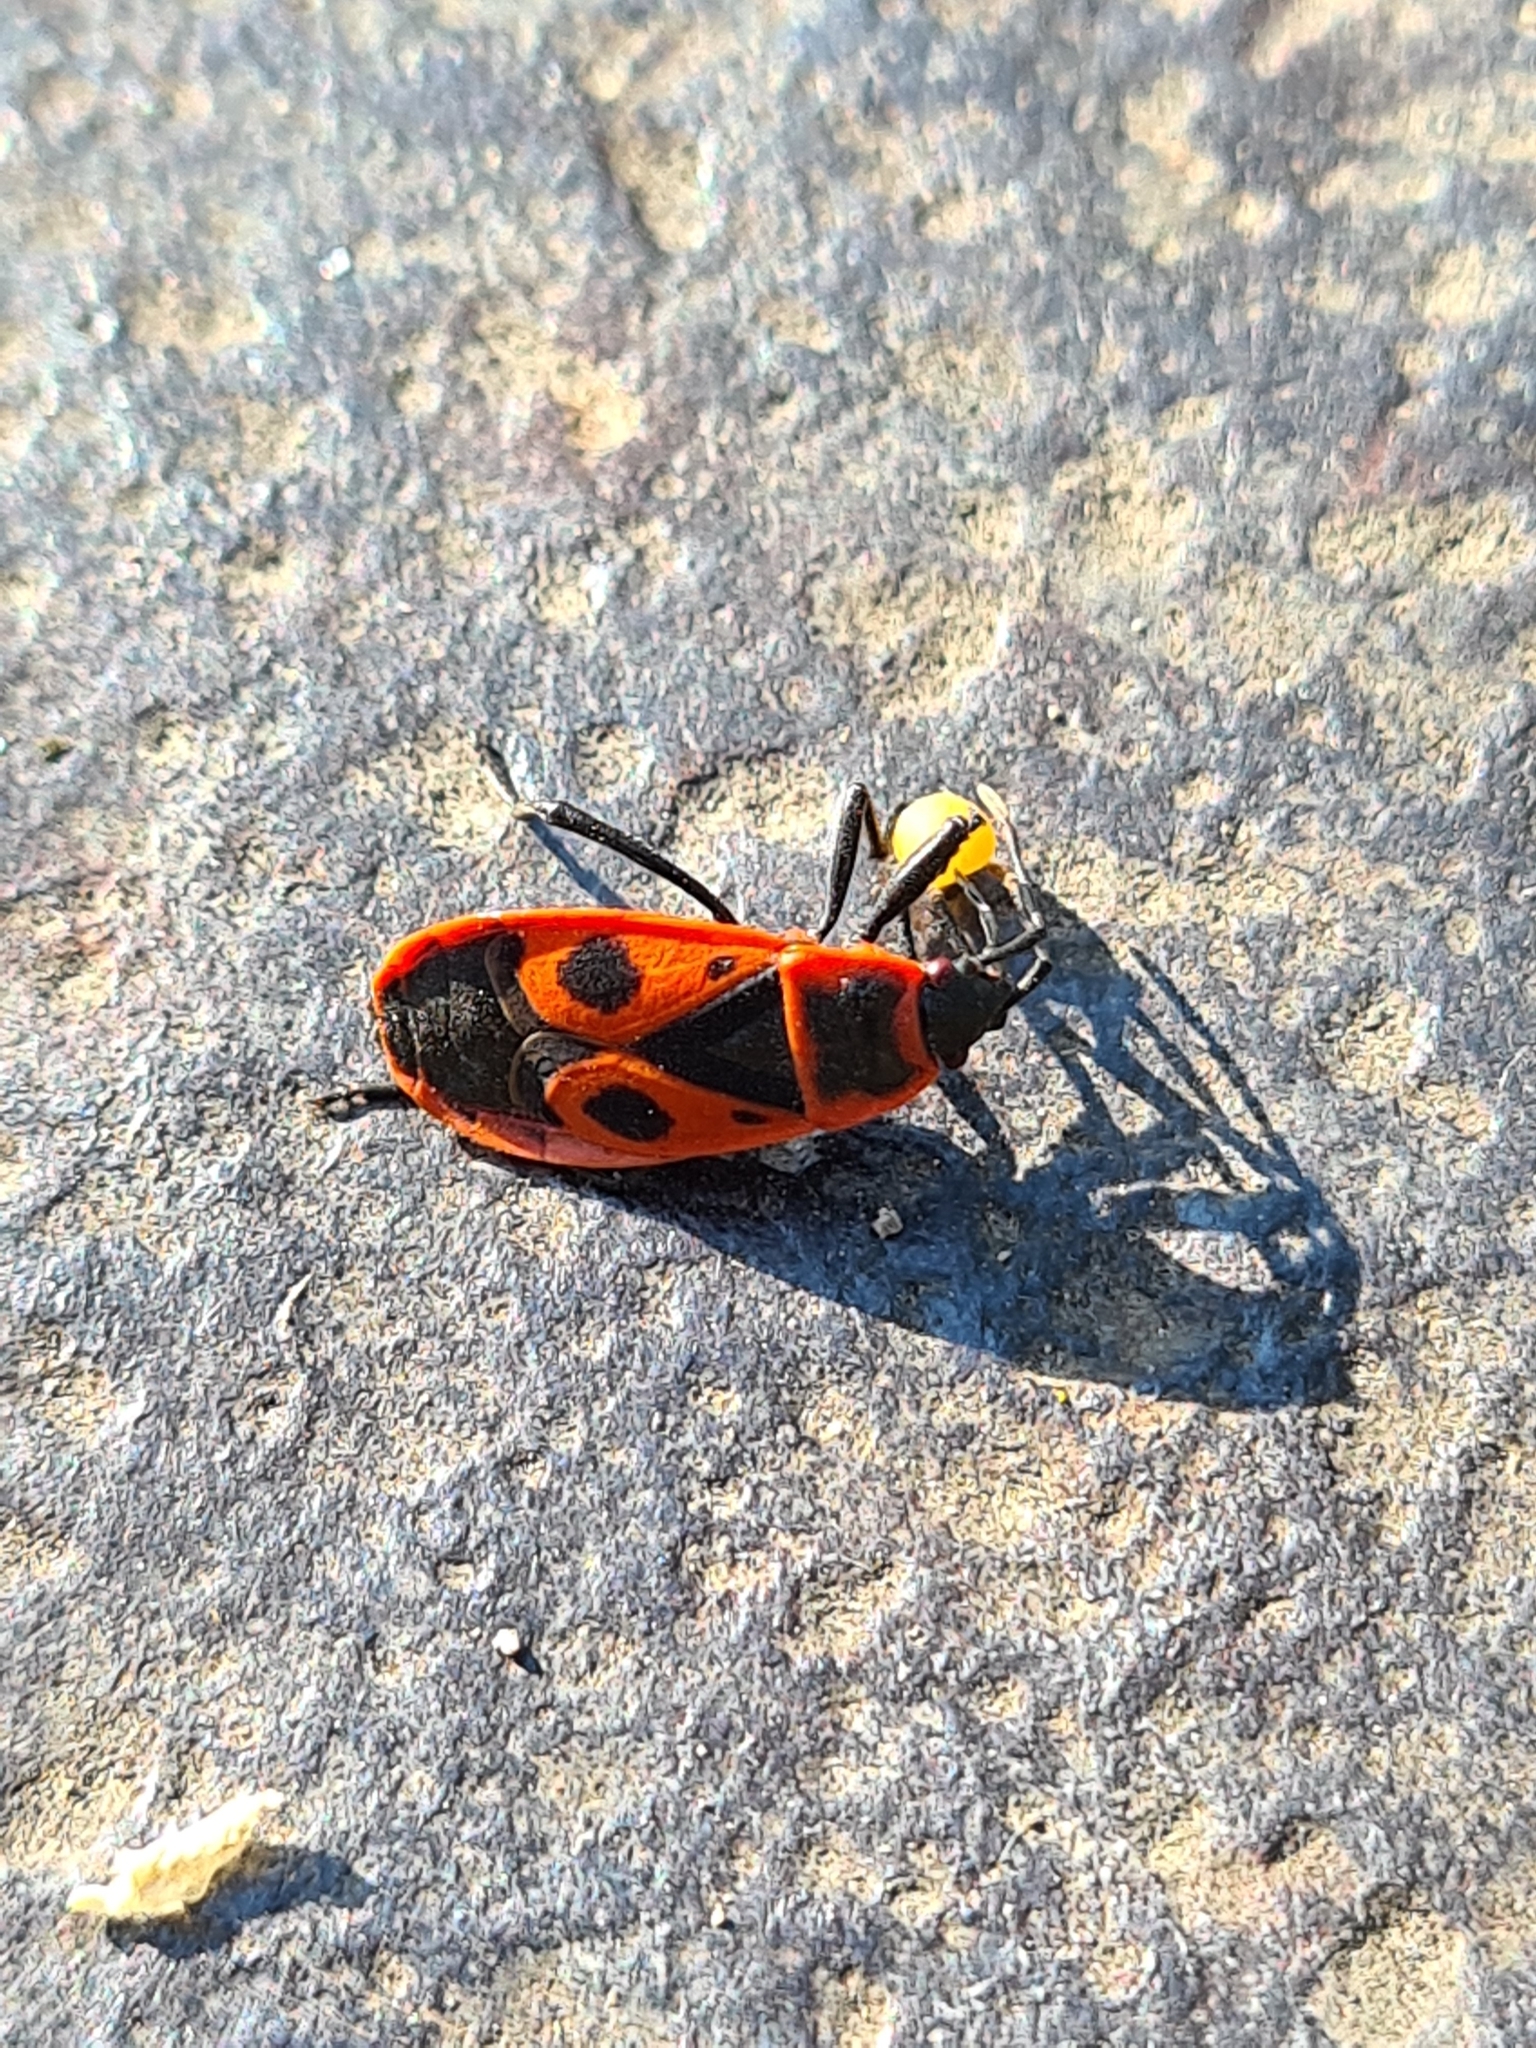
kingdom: Animalia
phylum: Arthropoda
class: Insecta
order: Hemiptera
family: Pyrrhocoridae
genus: Pyrrhocoris
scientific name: Pyrrhocoris apterus
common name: Firebug
